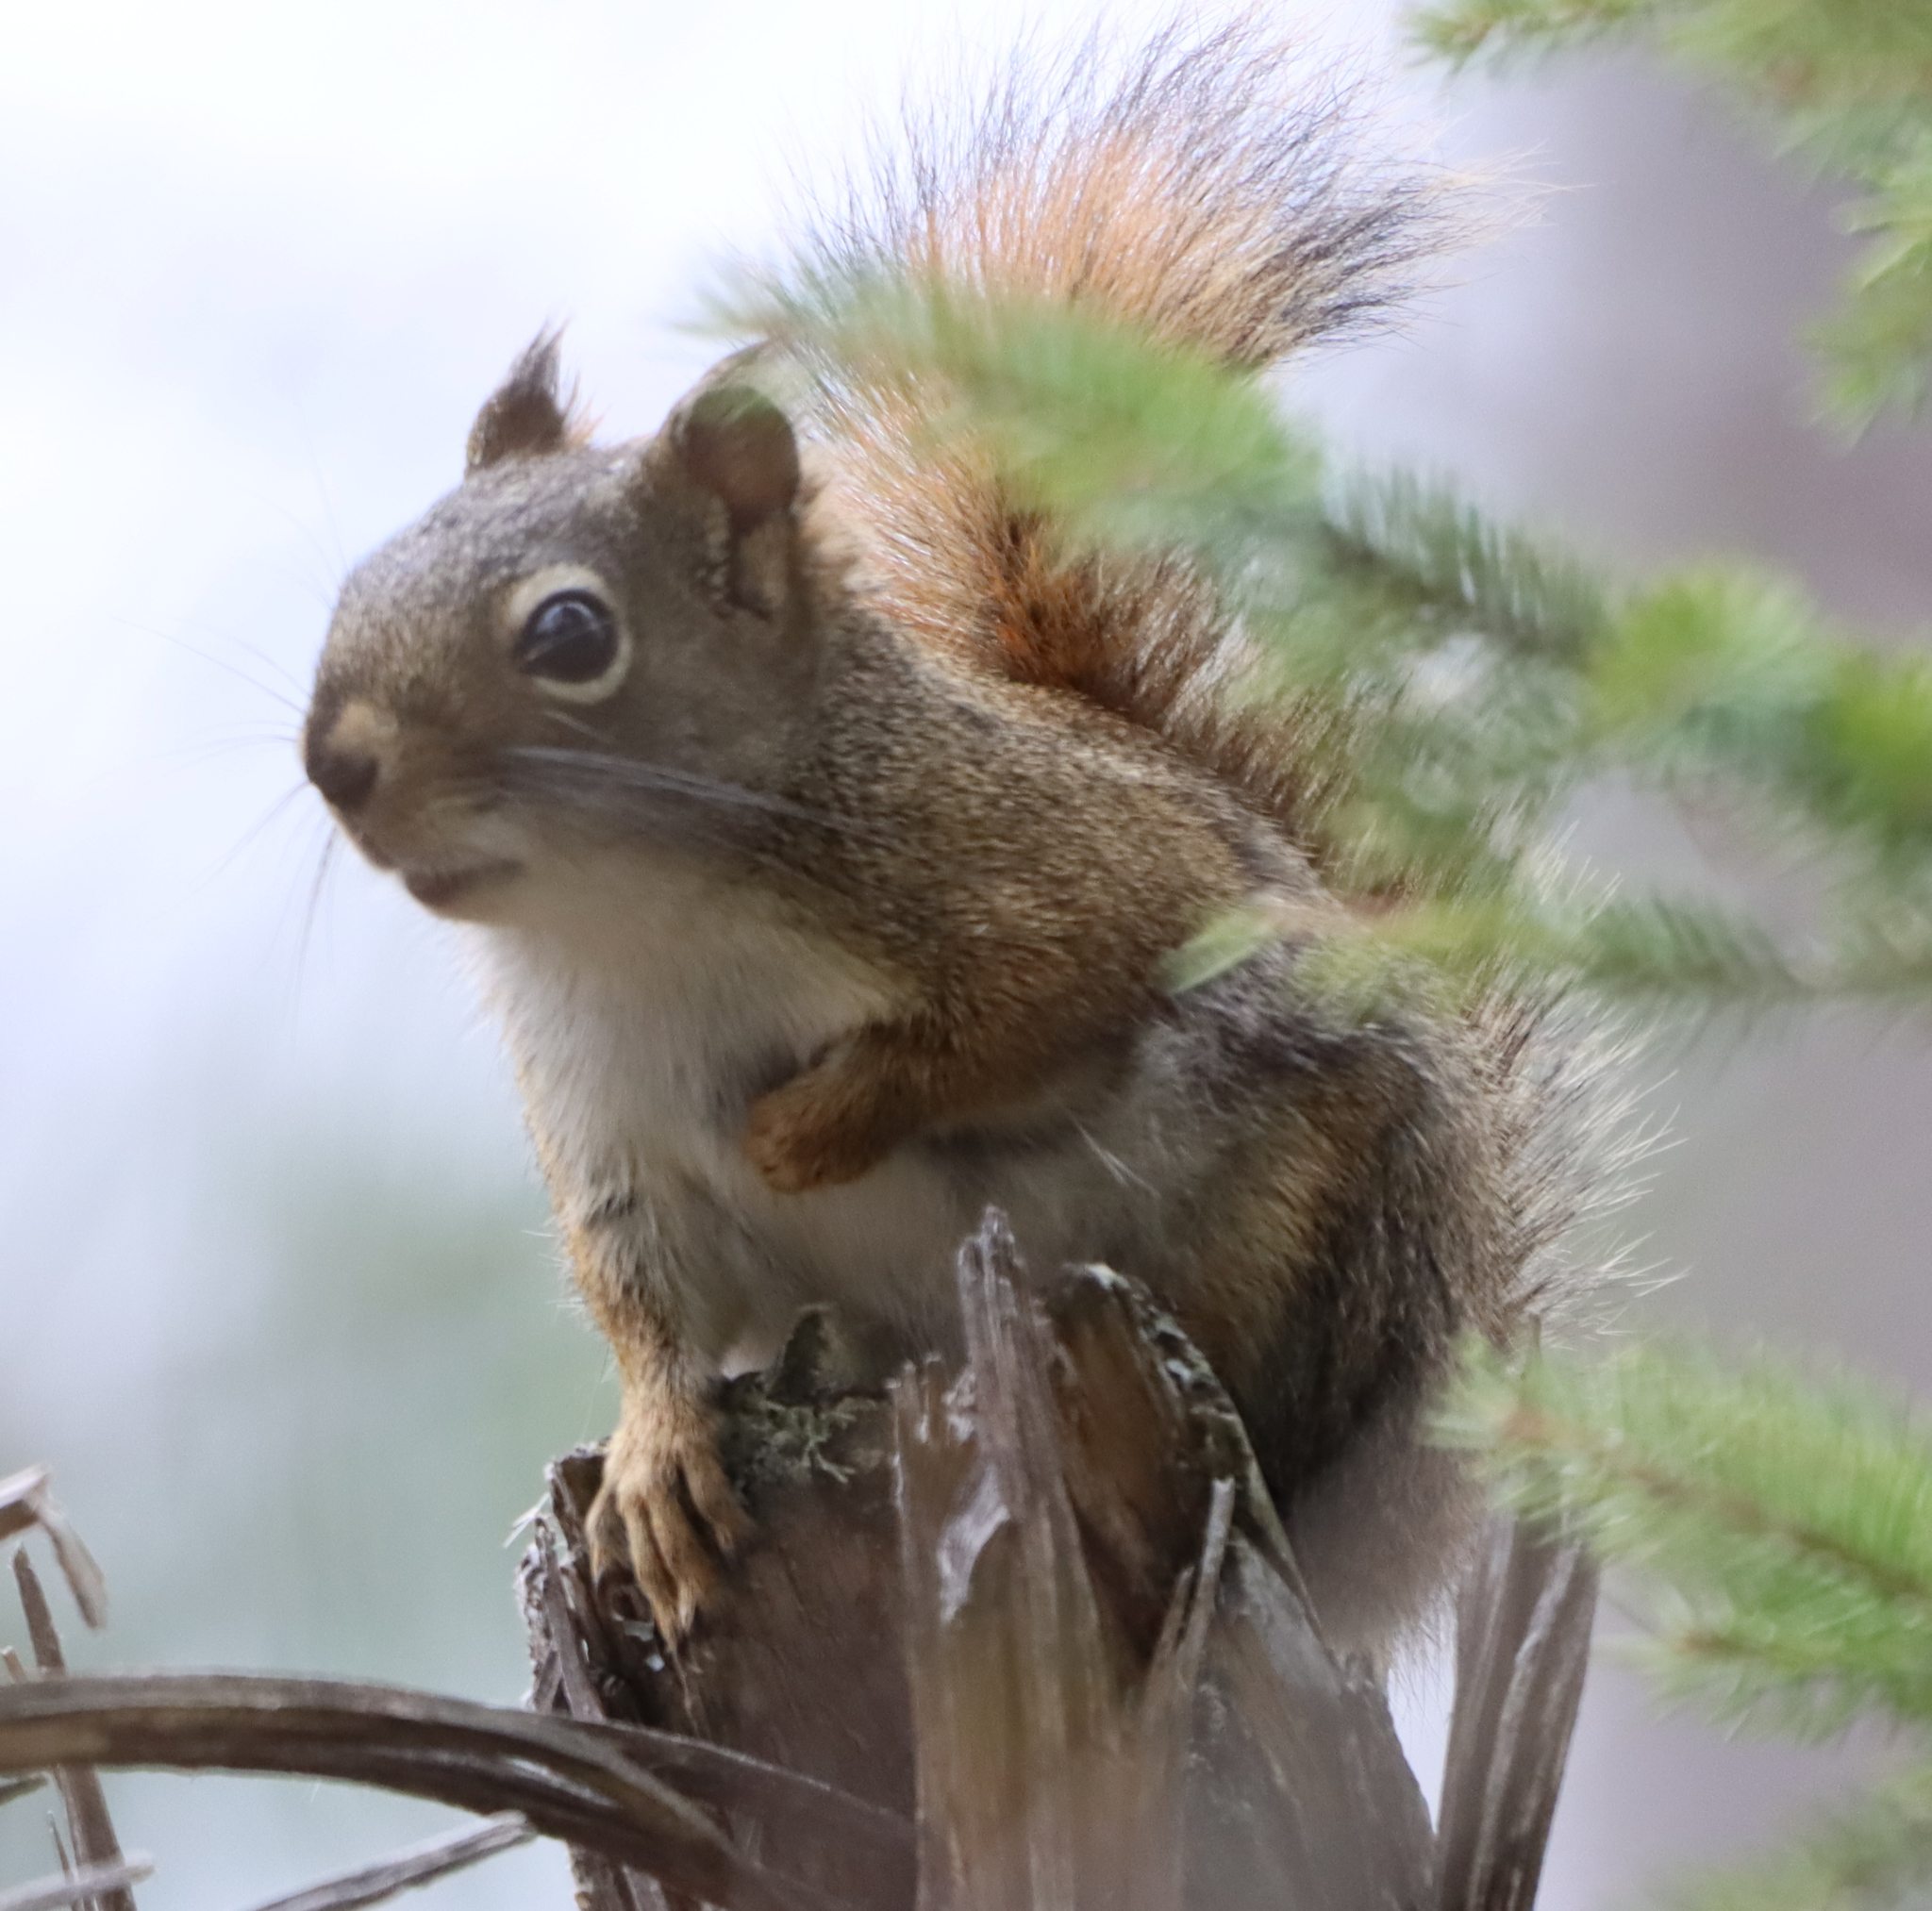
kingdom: Animalia
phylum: Chordata
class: Mammalia
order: Rodentia
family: Sciuridae
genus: Tamiasciurus
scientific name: Tamiasciurus hudsonicus
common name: Red squirrel
